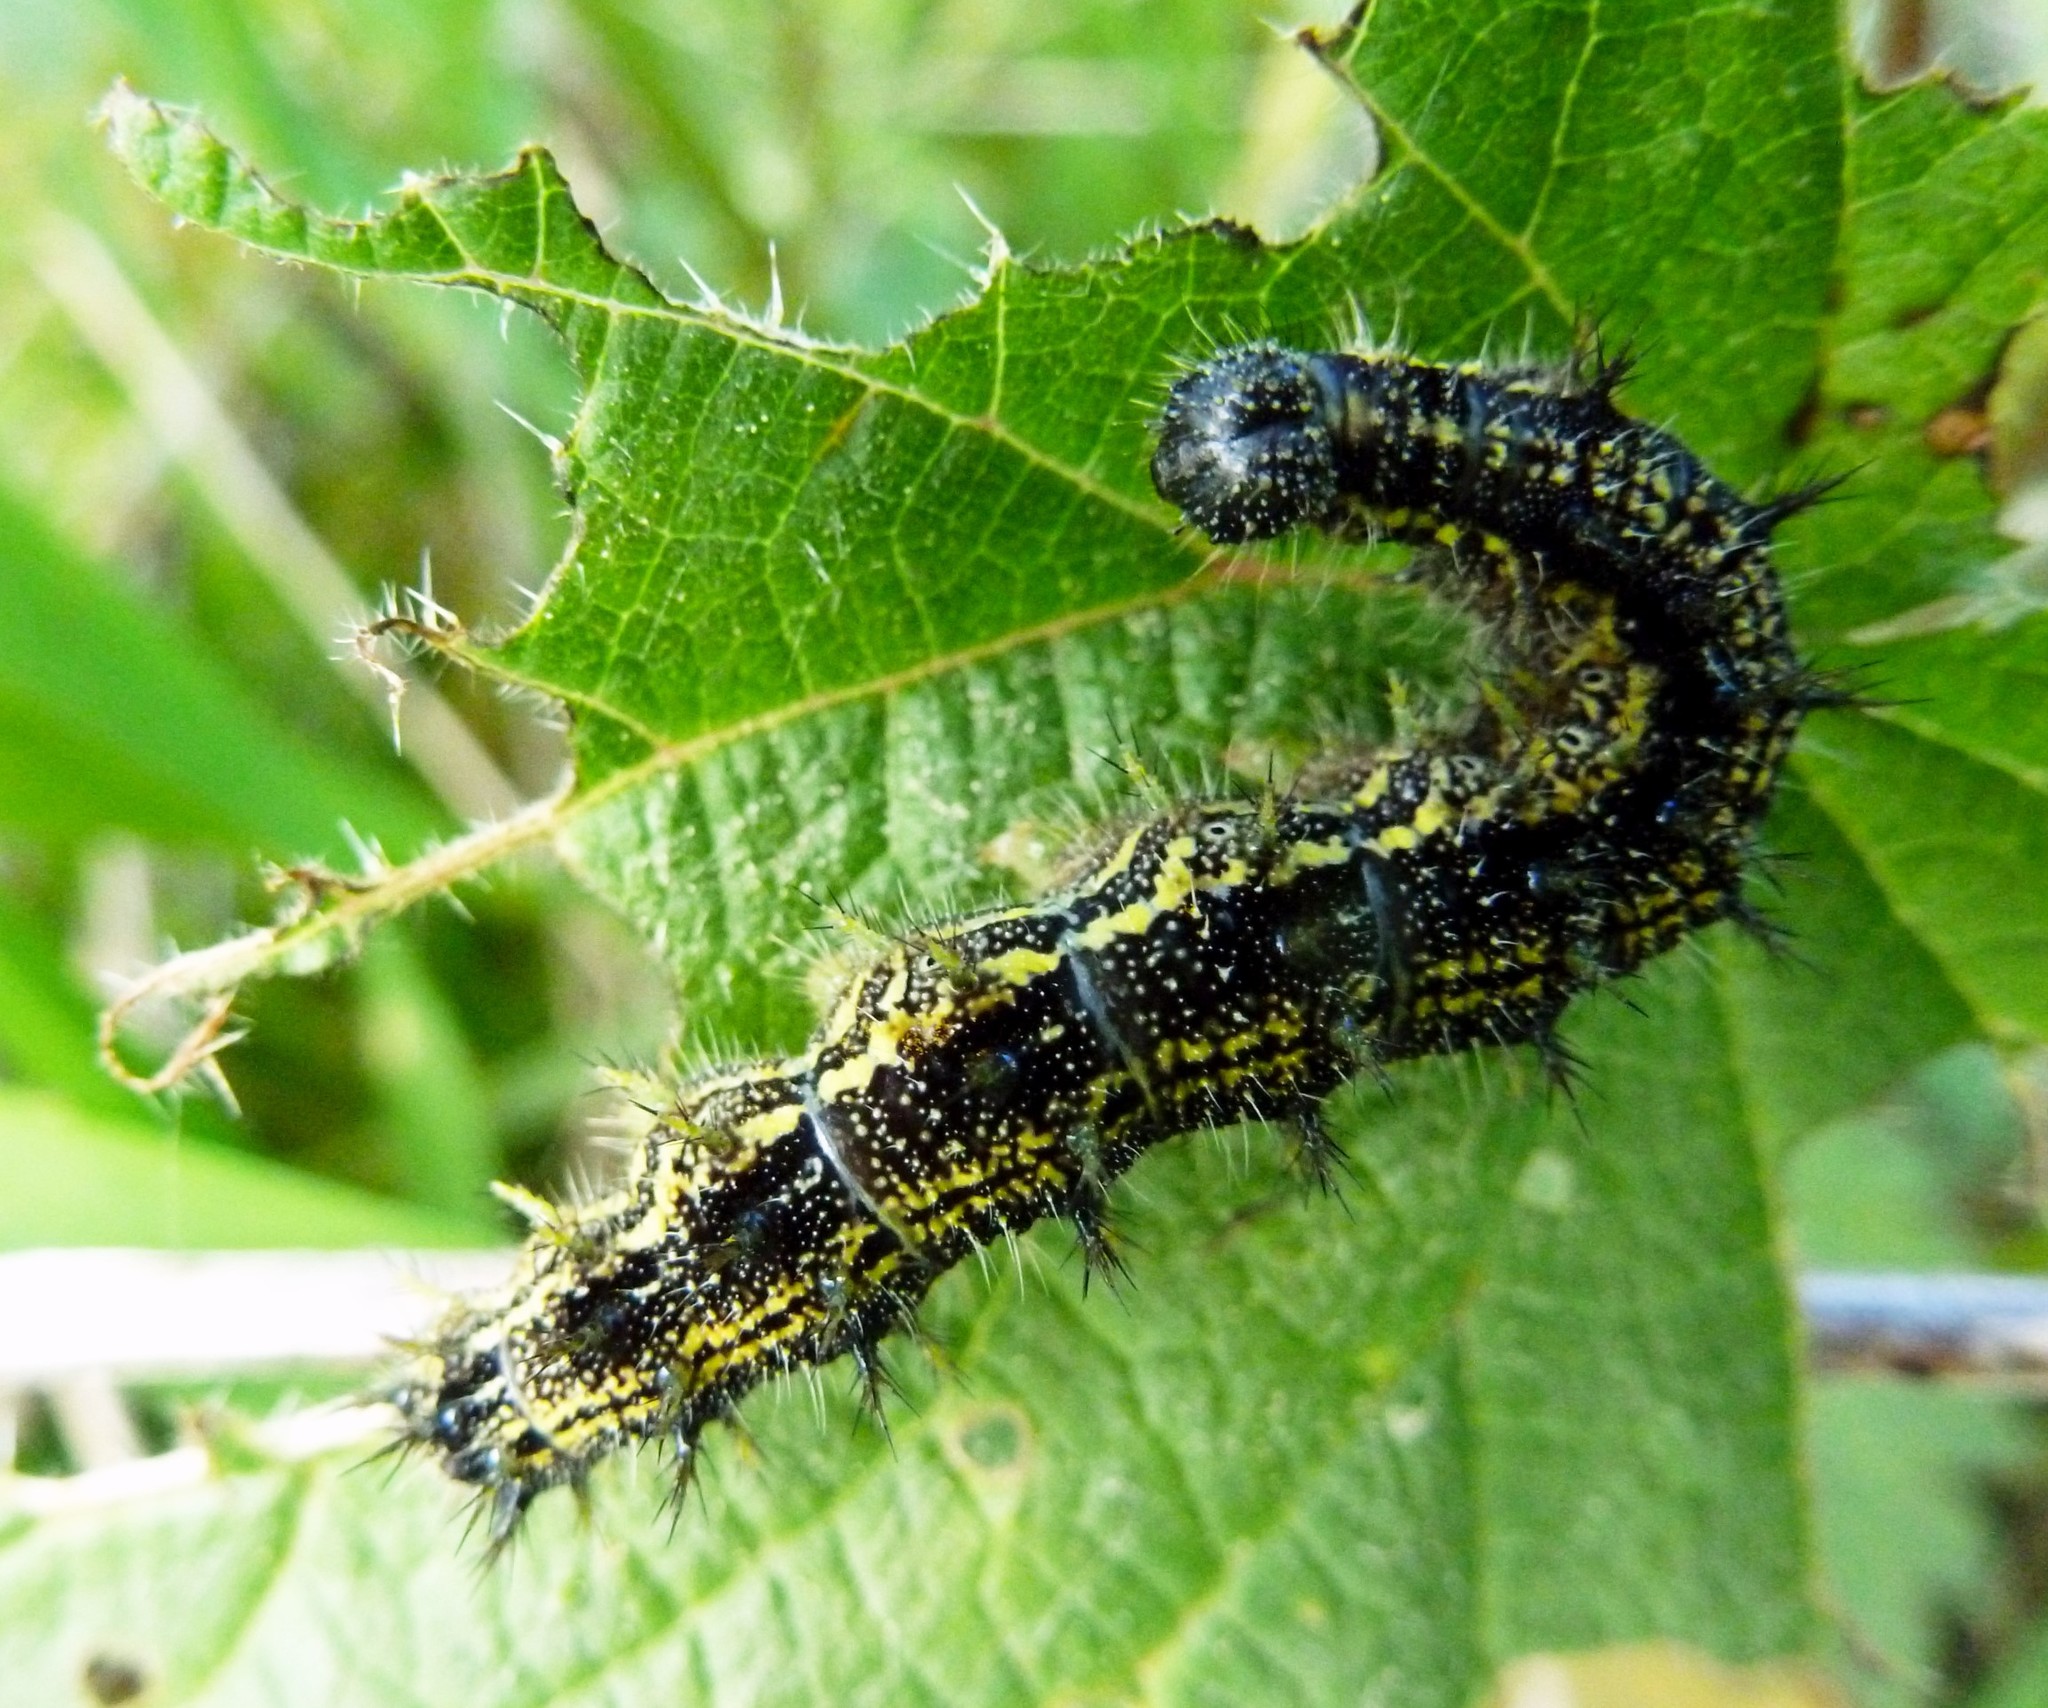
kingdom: Animalia
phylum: Arthropoda
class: Insecta
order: Lepidoptera
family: Nymphalidae
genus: Aglais
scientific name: Aglais urticae
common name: Small tortoiseshell
